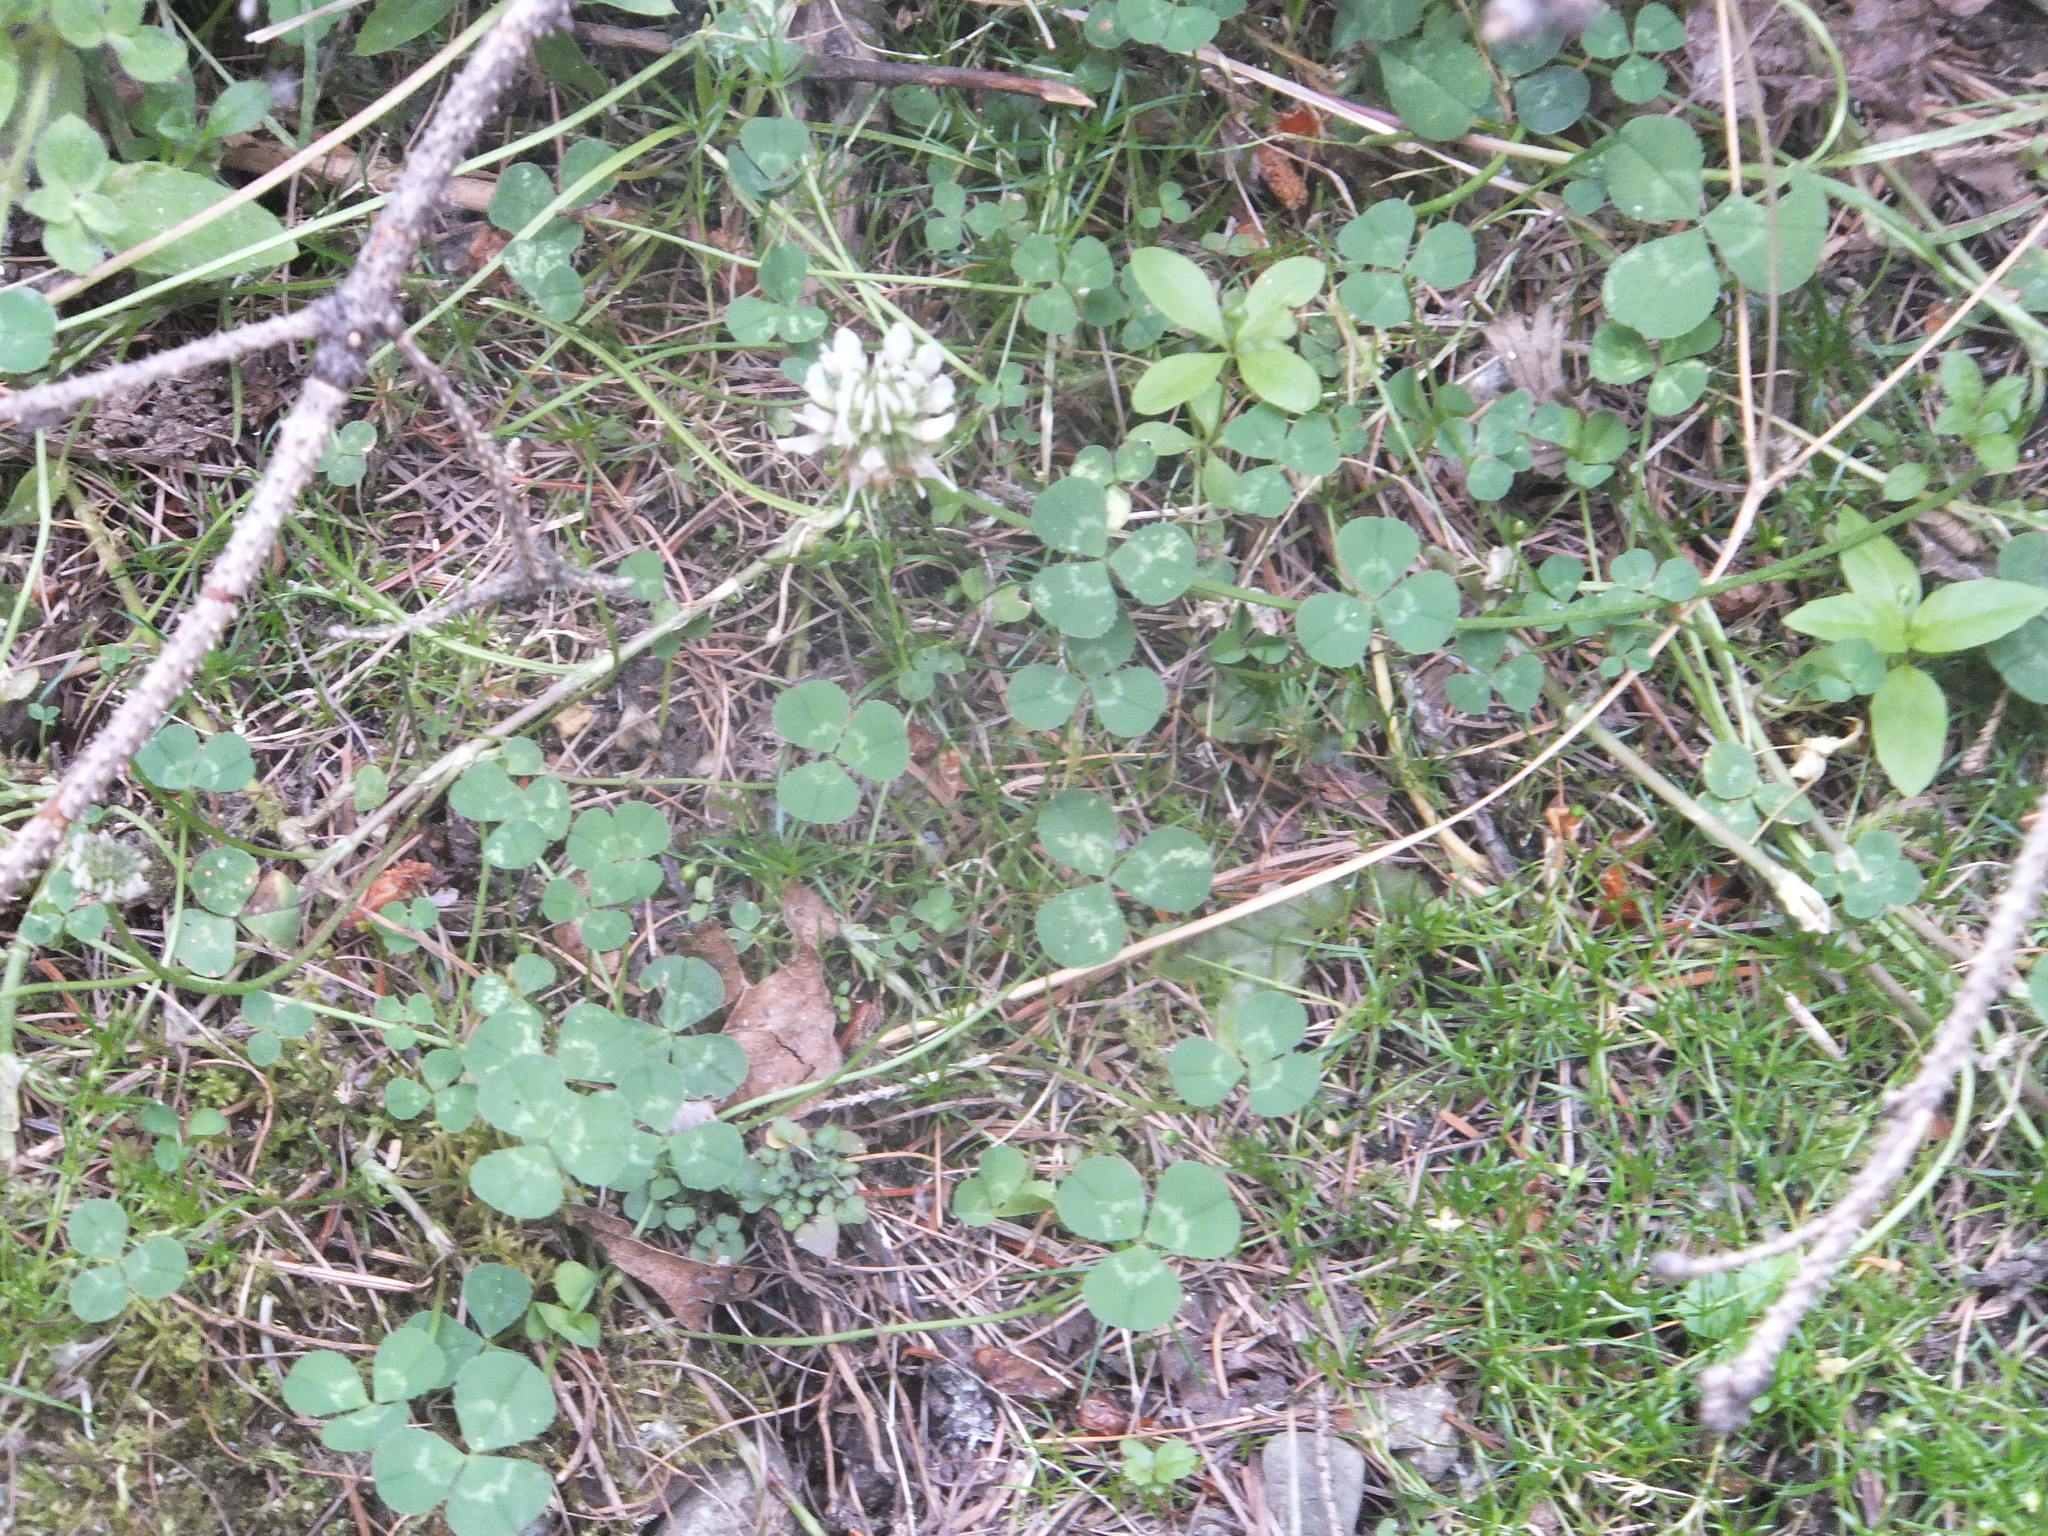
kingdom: Plantae
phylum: Tracheophyta
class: Magnoliopsida
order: Fabales
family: Fabaceae
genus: Trifolium
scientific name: Trifolium repens
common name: White clover
